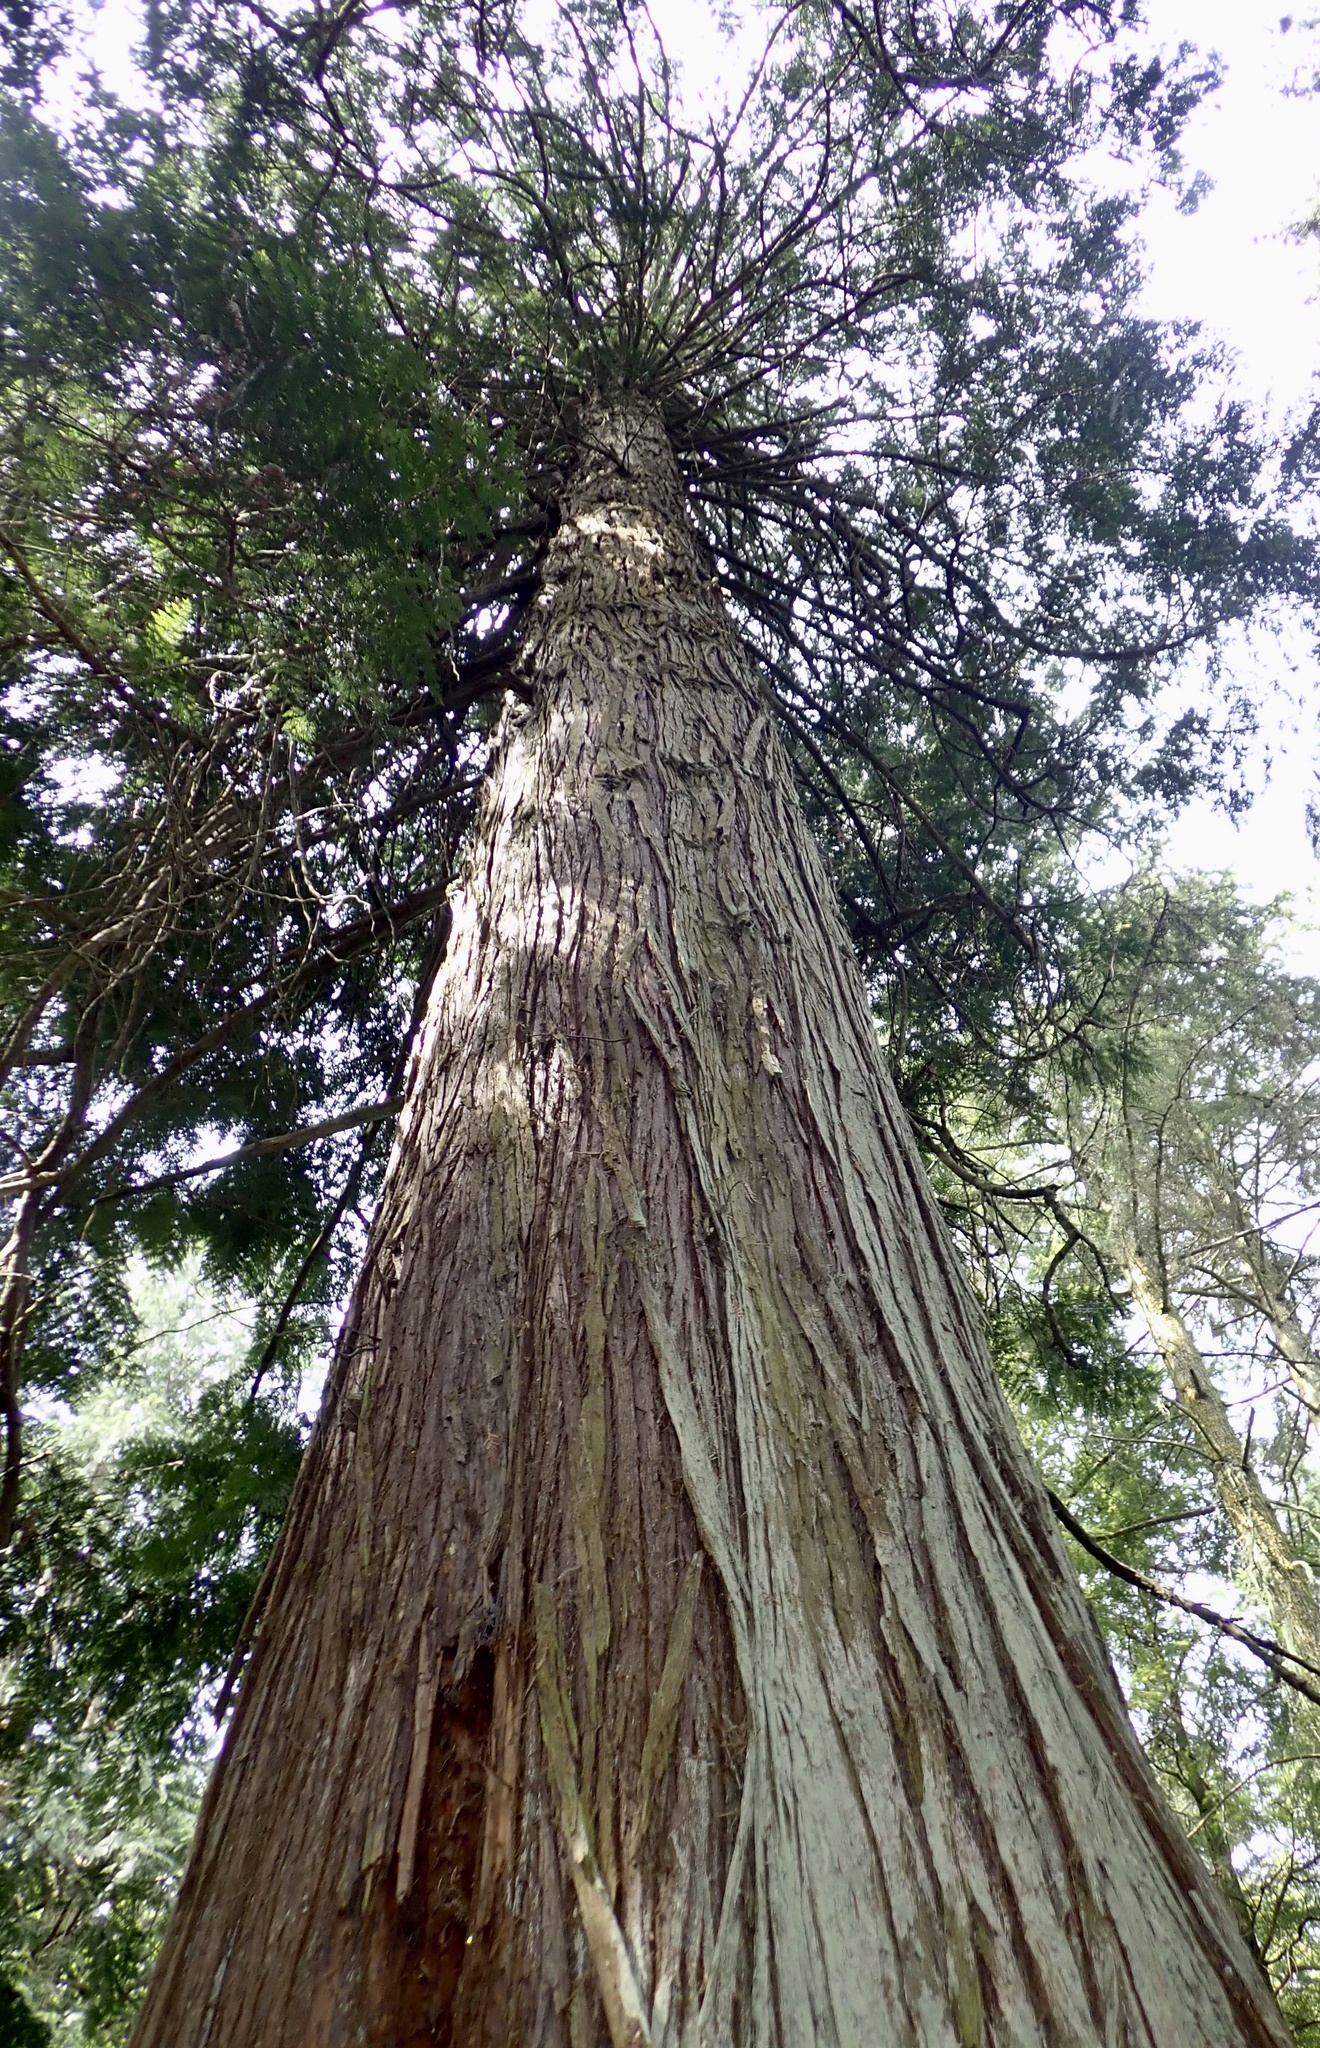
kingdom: Plantae
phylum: Tracheophyta
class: Pinopsida
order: Pinales
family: Cupressaceae
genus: Thuja
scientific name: Thuja plicata
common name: Western red-cedar
